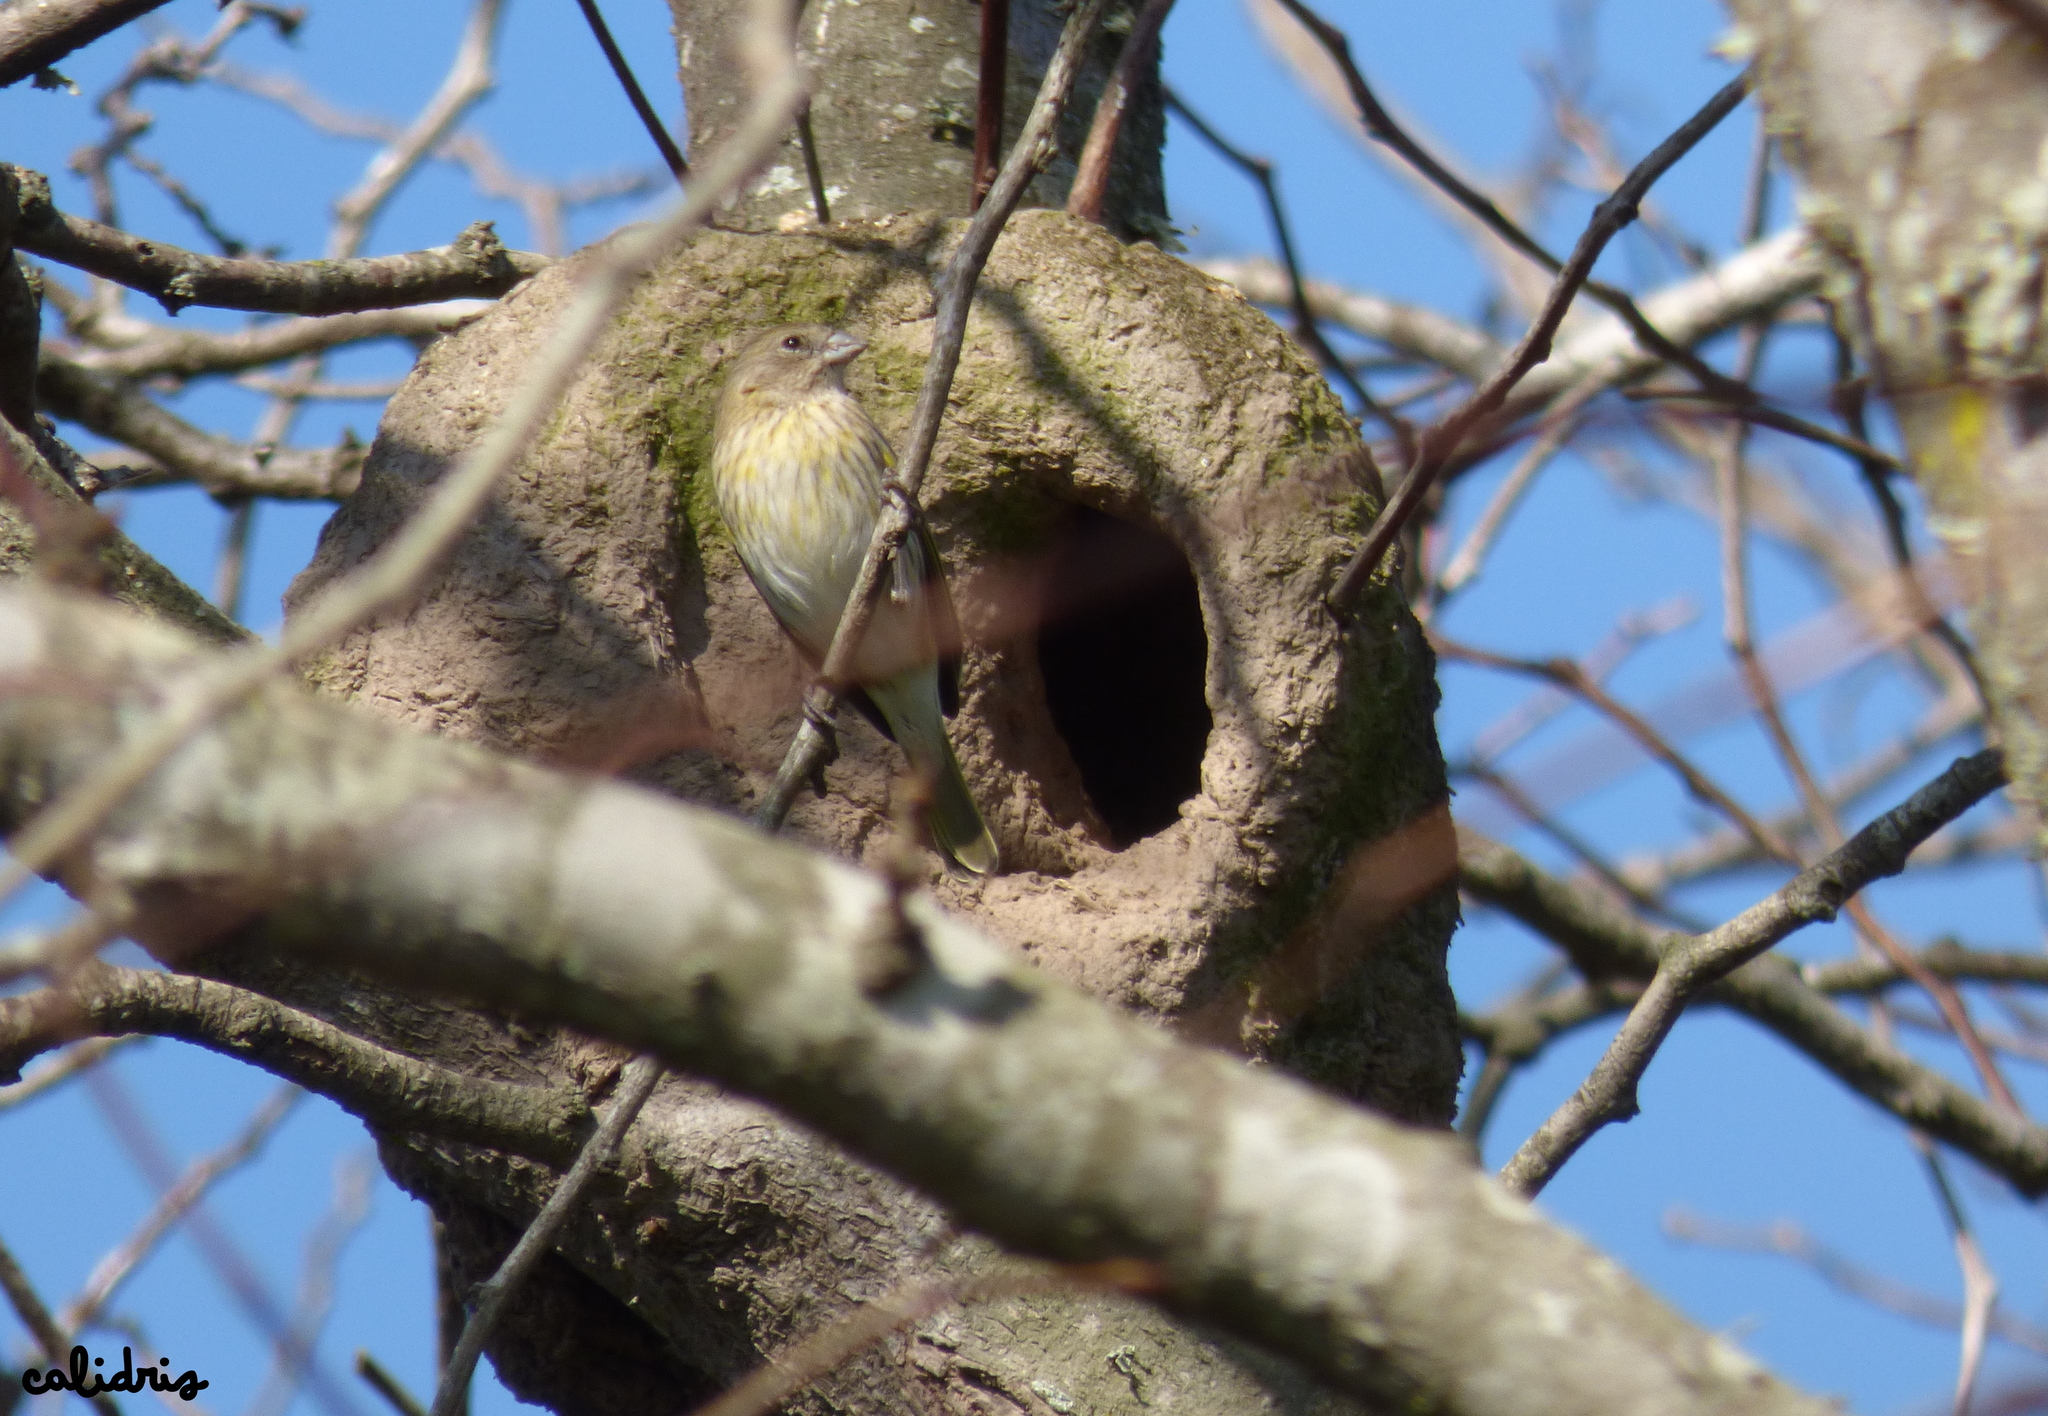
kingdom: Animalia
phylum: Chordata
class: Aves
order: Passeriformes
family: Thraupidae
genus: Sicalis
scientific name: Sicalis flaveola
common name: Saffron finch
